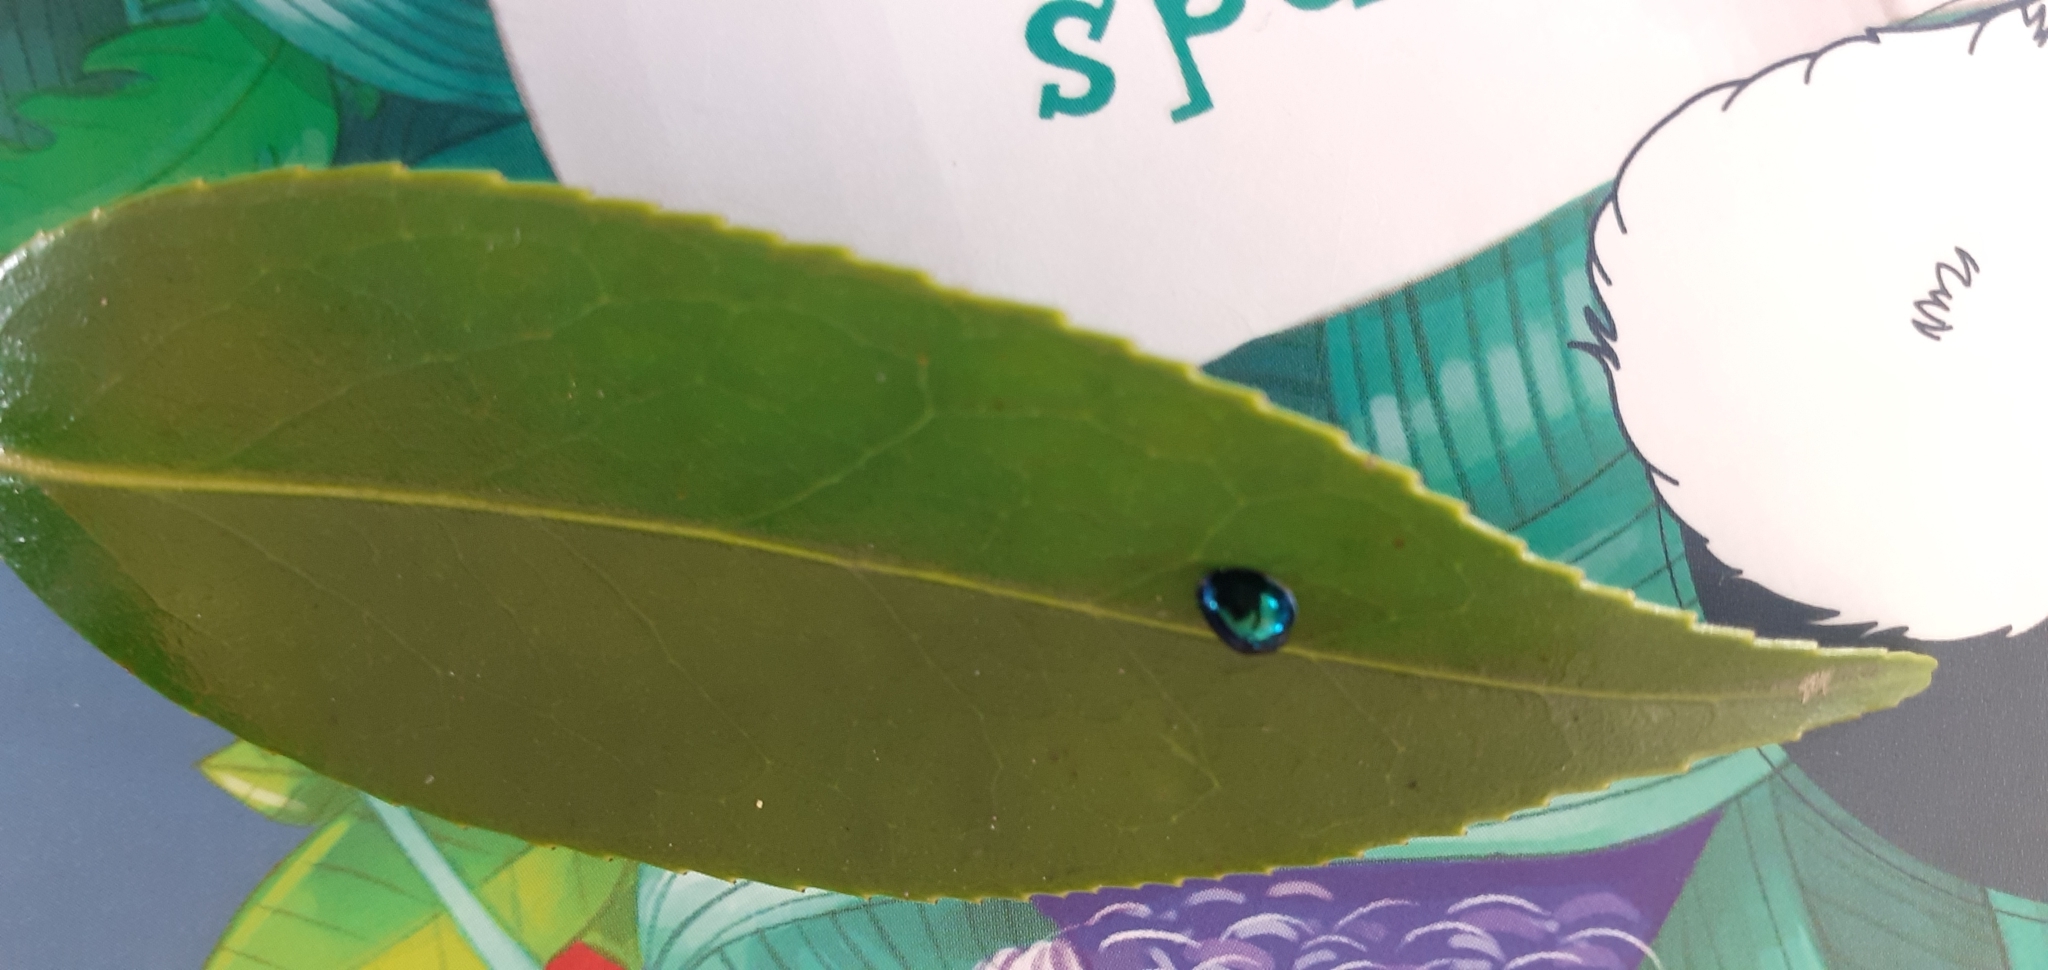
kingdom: Animalia
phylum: Arthropoda
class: Insecta
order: Coleoptera
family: Coccinellidae
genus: Halmus
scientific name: Halmus chalybeus
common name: Steel blue ladybird beetle
